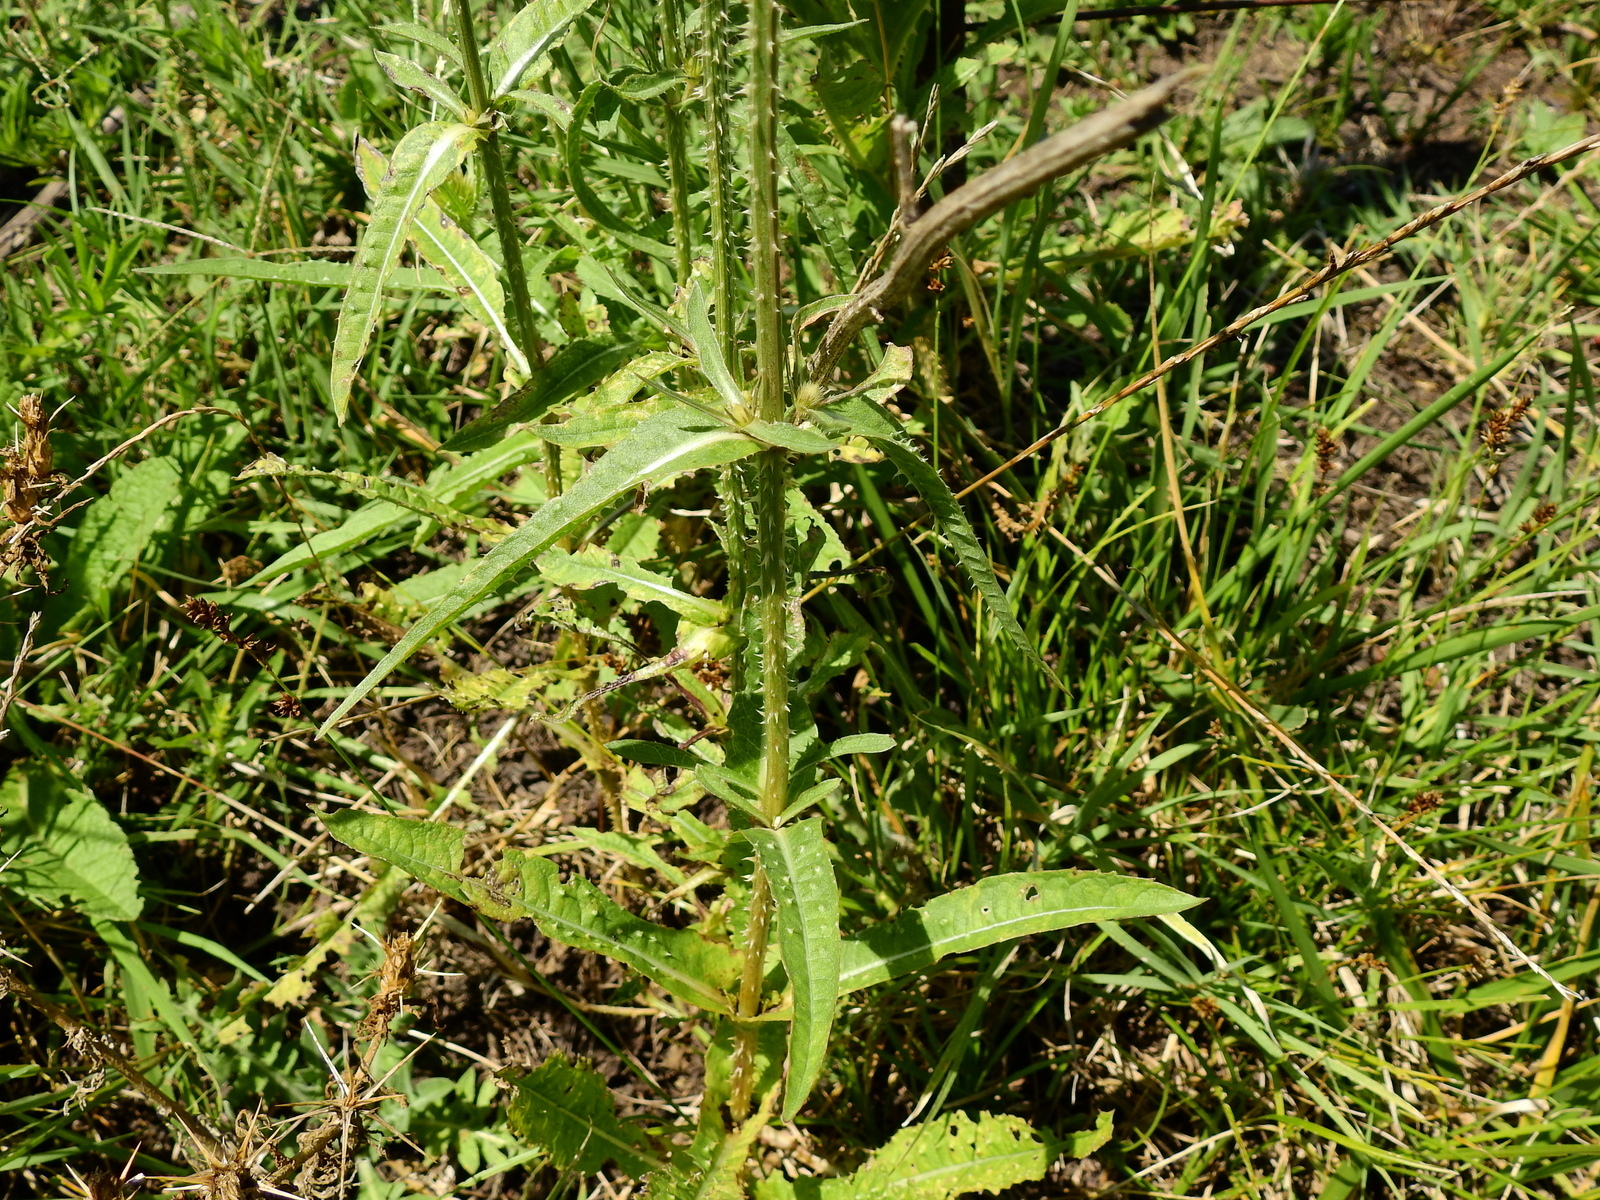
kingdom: Plantae
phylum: Tracheophyta
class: Magnoliopsida
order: Dipsacales
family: Caprifoliaceae
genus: Dipsacus
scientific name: Dipsacus fullonum
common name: Teasel
